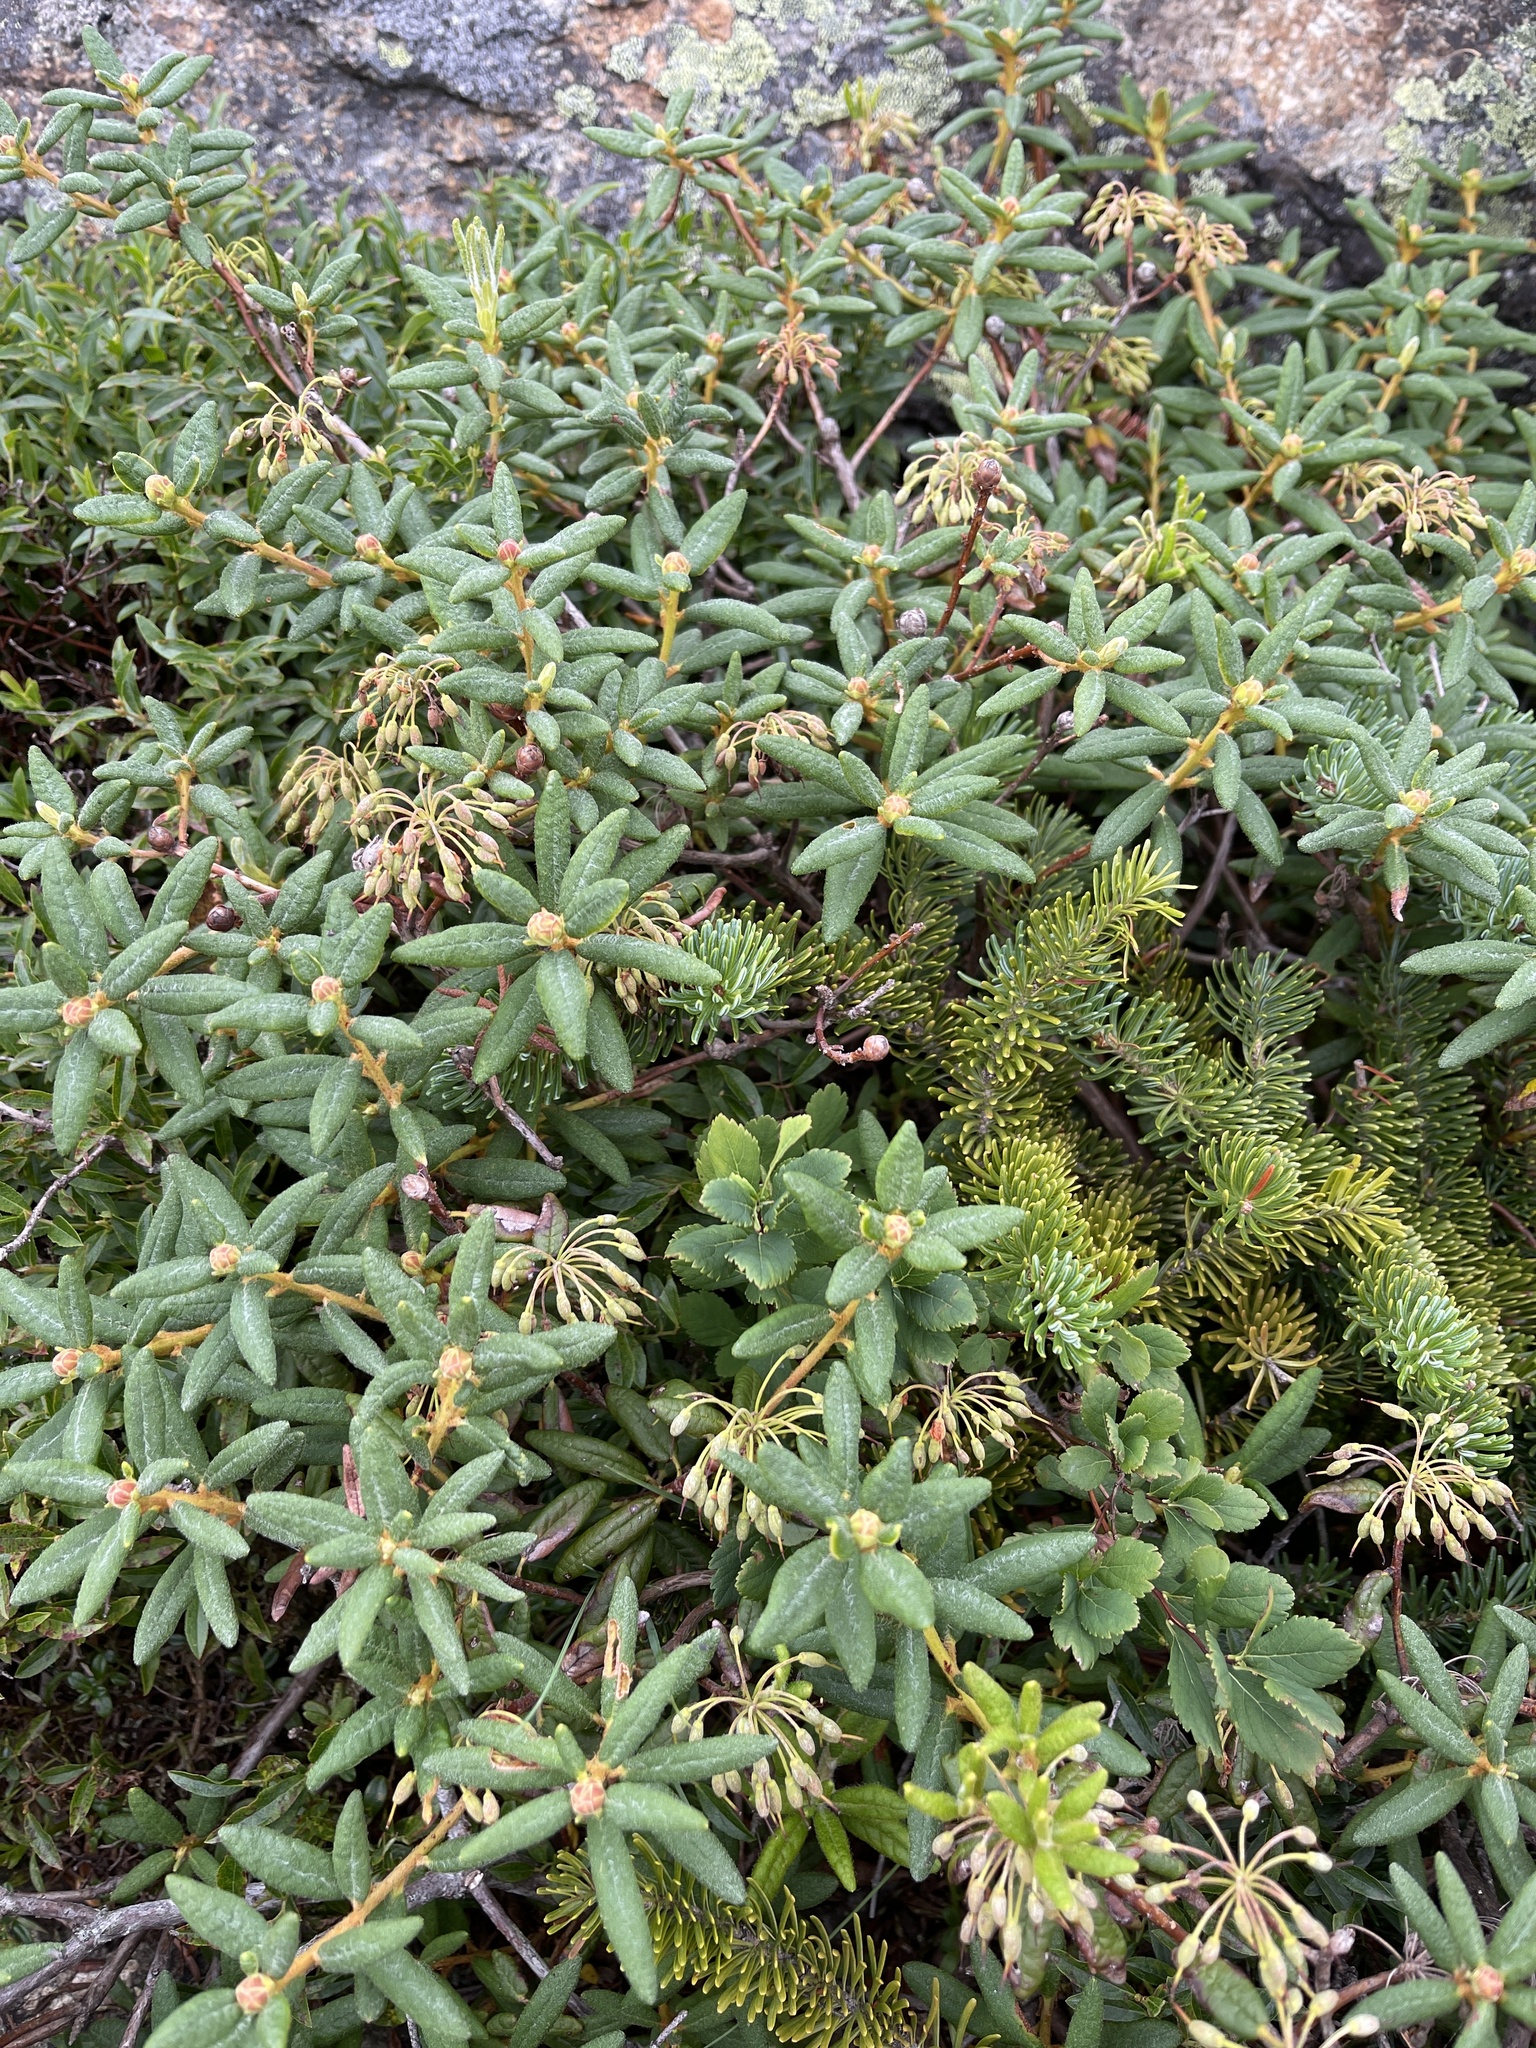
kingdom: Plantae
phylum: Tracheophyta
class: Magnoliopsida
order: Ericales
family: Ericaceae
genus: Rhododendron
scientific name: Rhododendron groenlandicum
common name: Bog labrador tea
